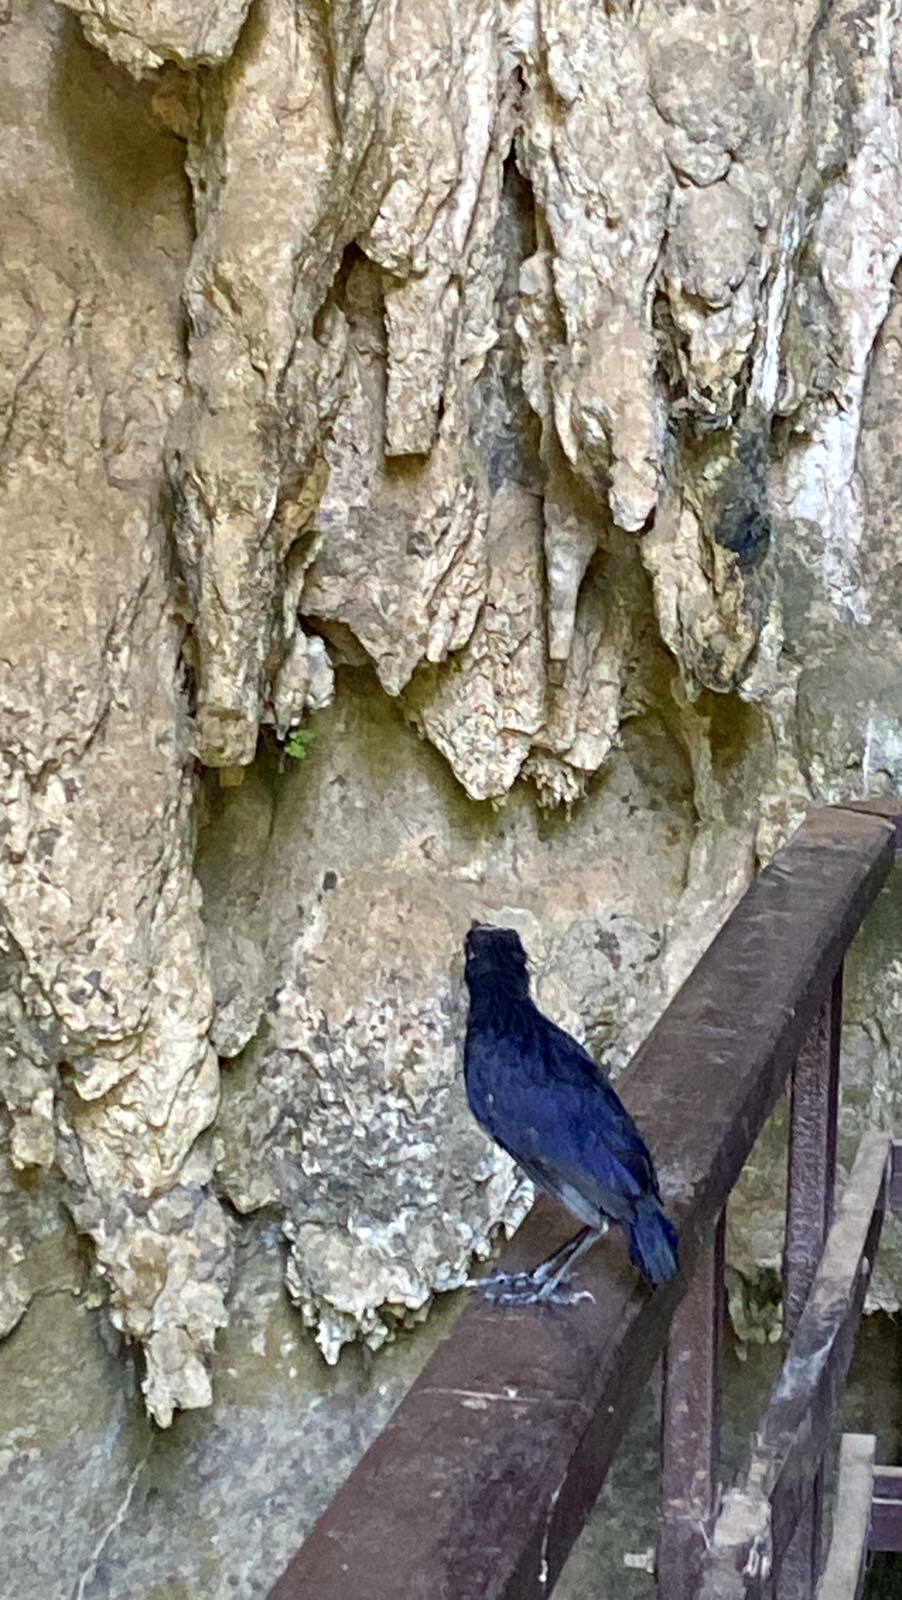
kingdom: Animalia
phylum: Chordata
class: Aves
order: Passeriformes
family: Muscicapidae
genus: Myophonus
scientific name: Myophonus caeruleus
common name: Blue whistling-thrush
